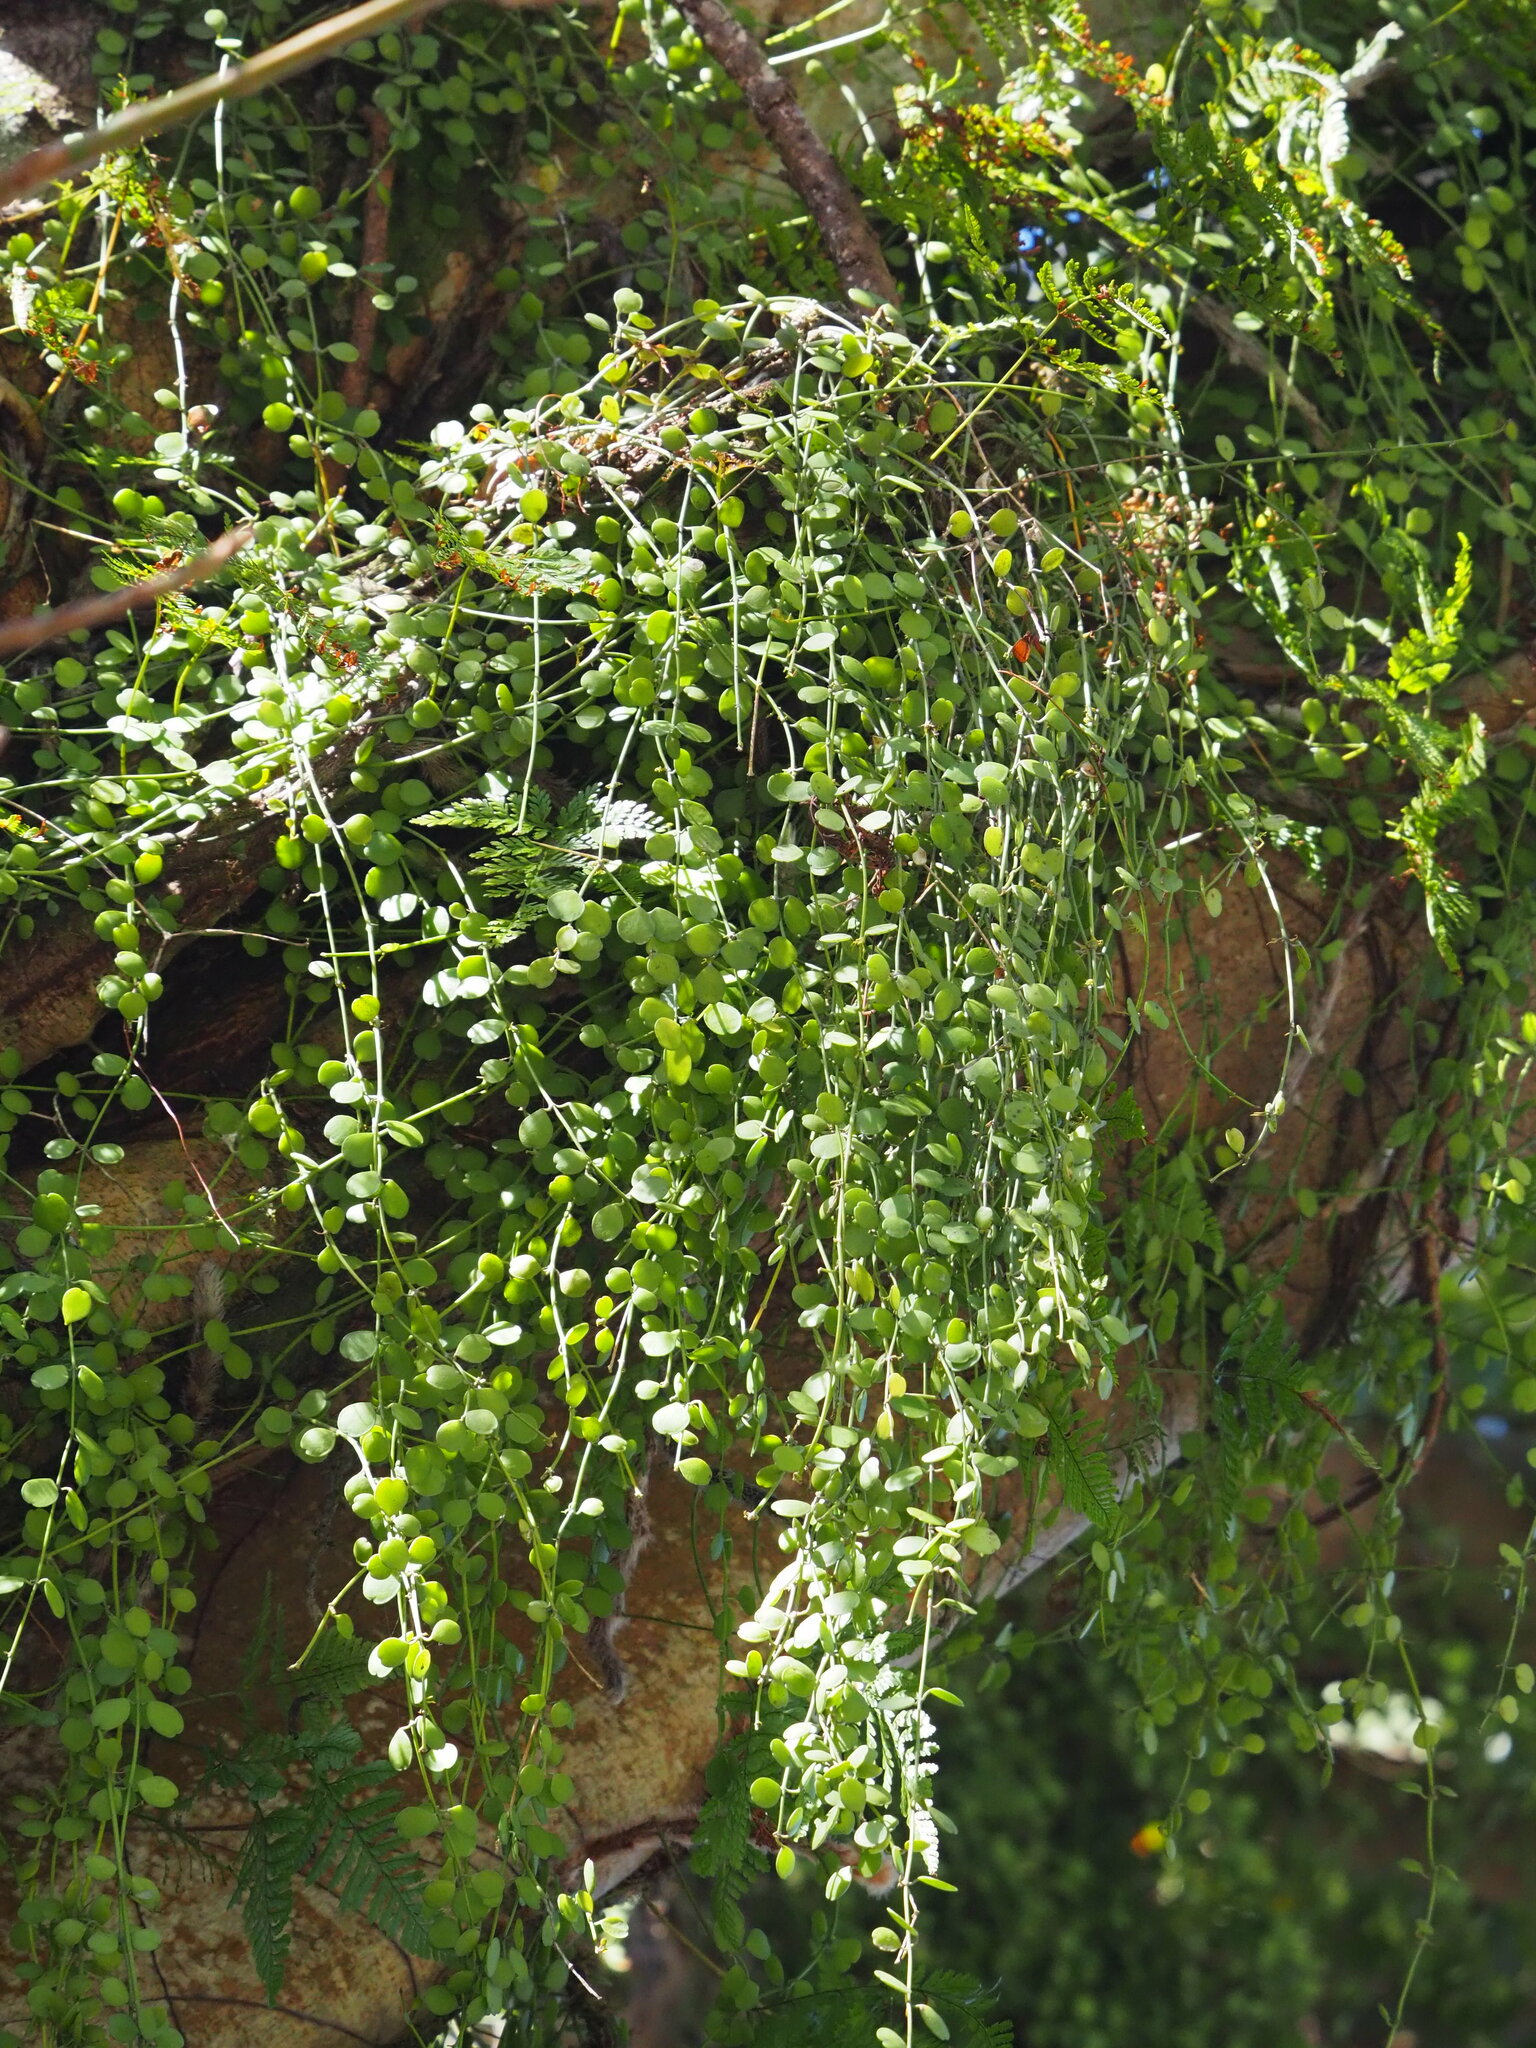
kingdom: Plantae
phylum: Tracheophyta
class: Magnoliopsida
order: Gentianales
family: Apocynaceae
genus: Dischidia
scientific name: Dischidia formosana
